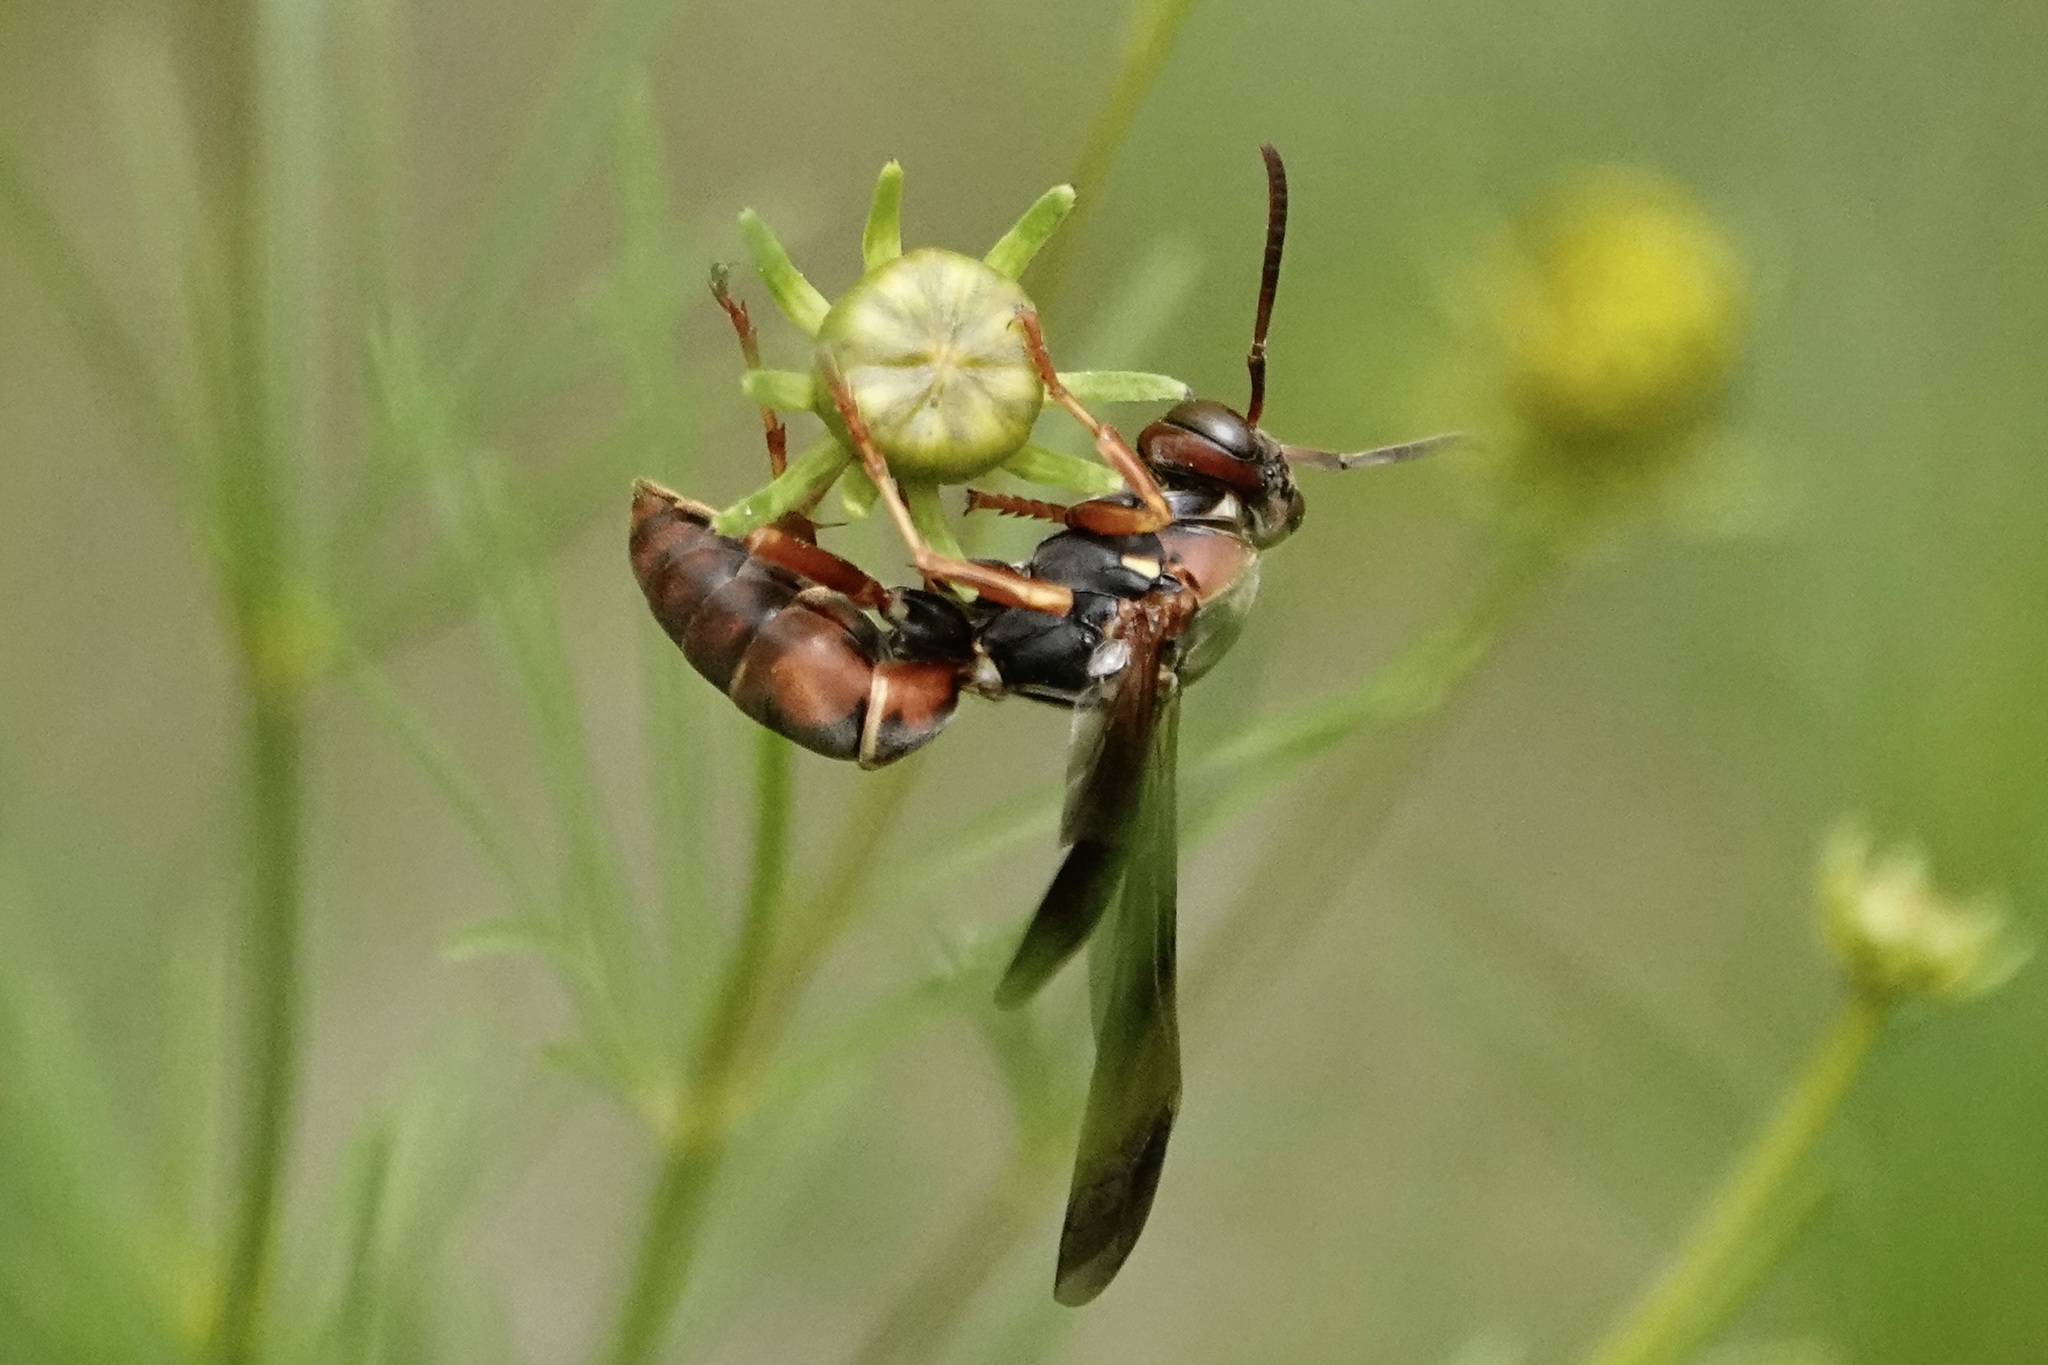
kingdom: Animalia
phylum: Arthropoda
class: Insecta
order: Hymenoptera
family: Eumenidae
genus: Polistes
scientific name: Polistes fuscatus
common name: Dark paper wasp
